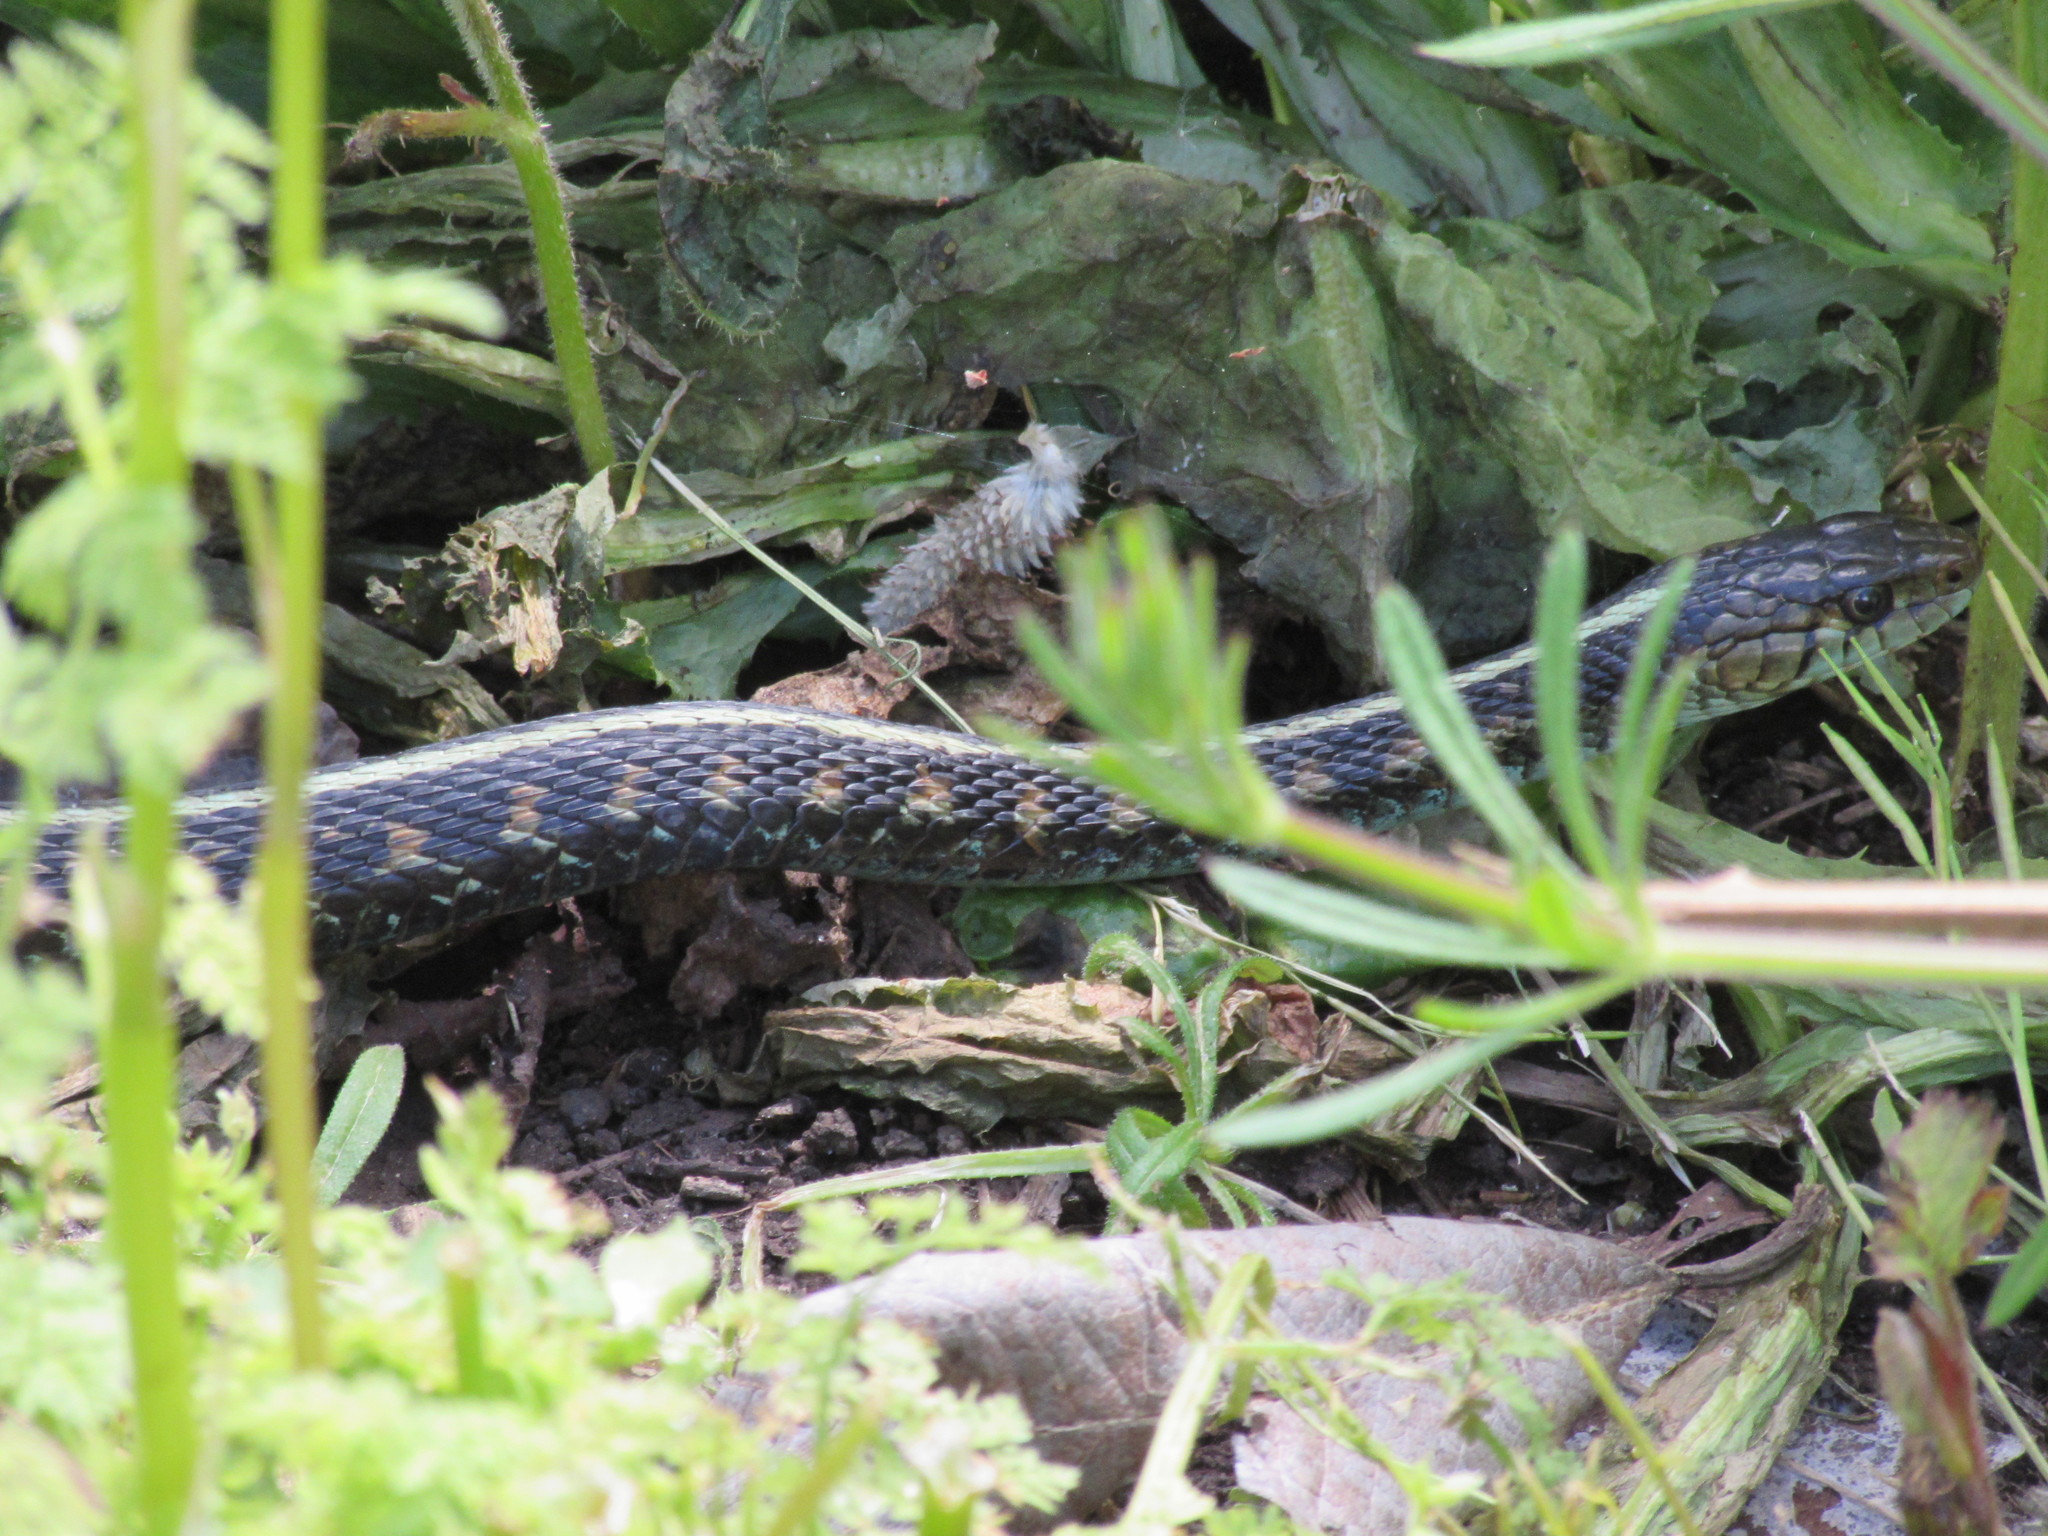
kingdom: Animalia
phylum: Chordata
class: Squamata
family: Colubridae
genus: Thamnophis
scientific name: Thamnophis sirtalis
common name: Common garter snake
